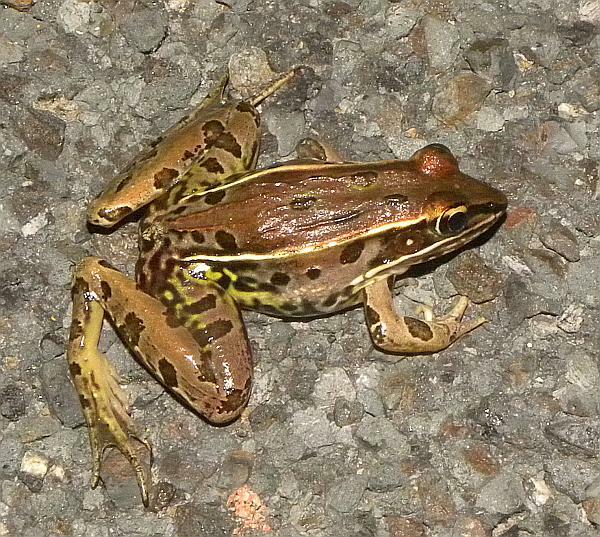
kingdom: Animalia
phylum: Chordata
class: Amphibia
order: Anura
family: Ranidae
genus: Lithobates
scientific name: Lithobates sphenocephalus
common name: Southern leopard frog
